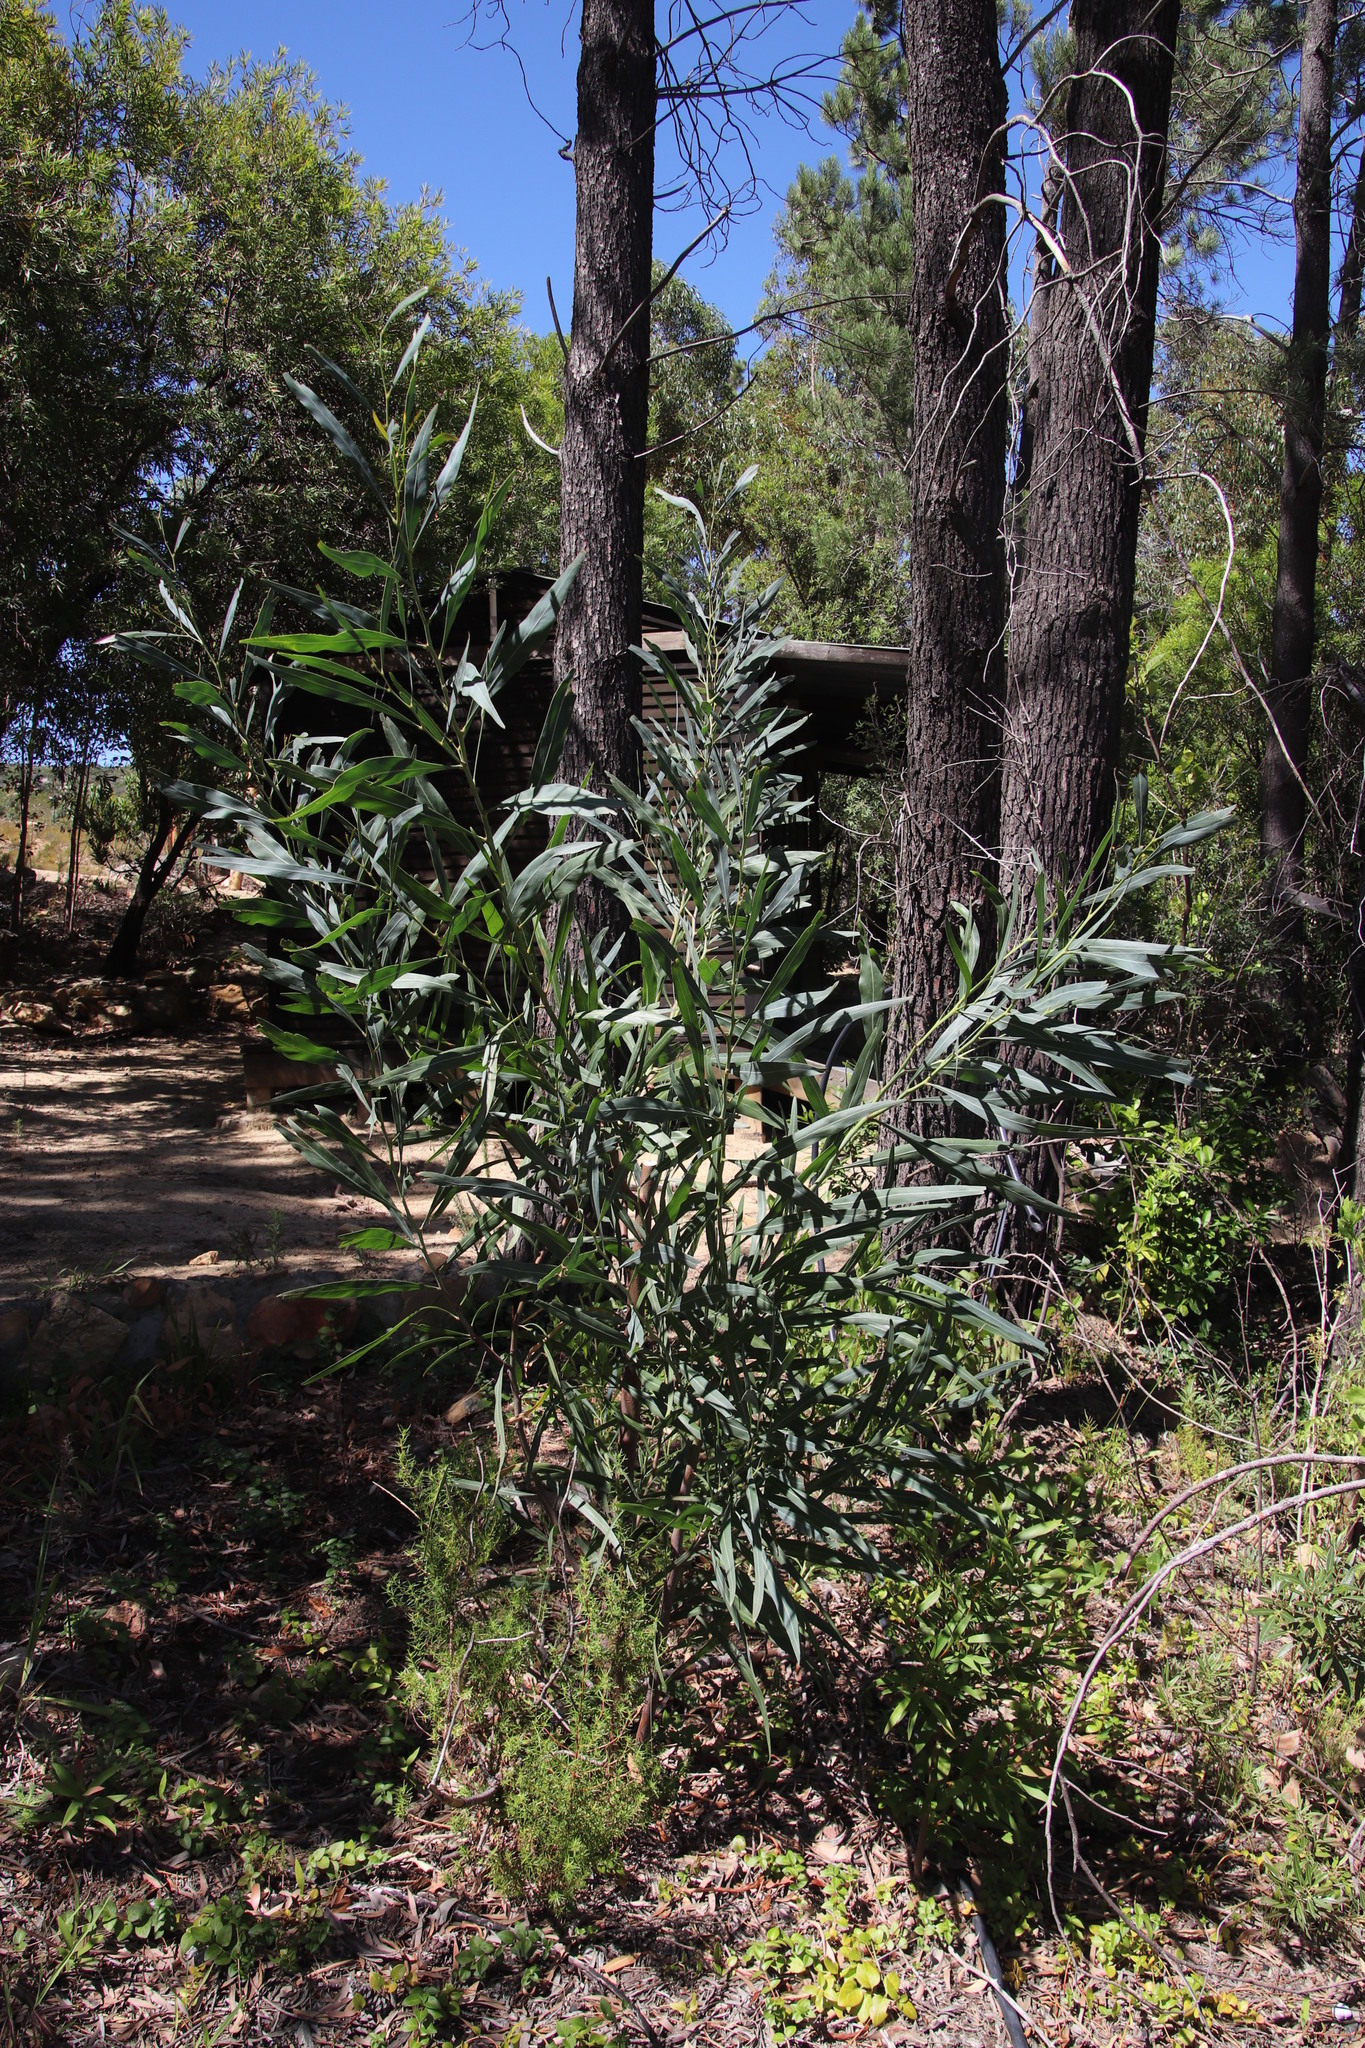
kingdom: Plantae
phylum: Tracheophyta
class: Magnoliopsida
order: Fabales
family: Fabaceae
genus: Acacia
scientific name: Acacia saligna
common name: Orange wattle
